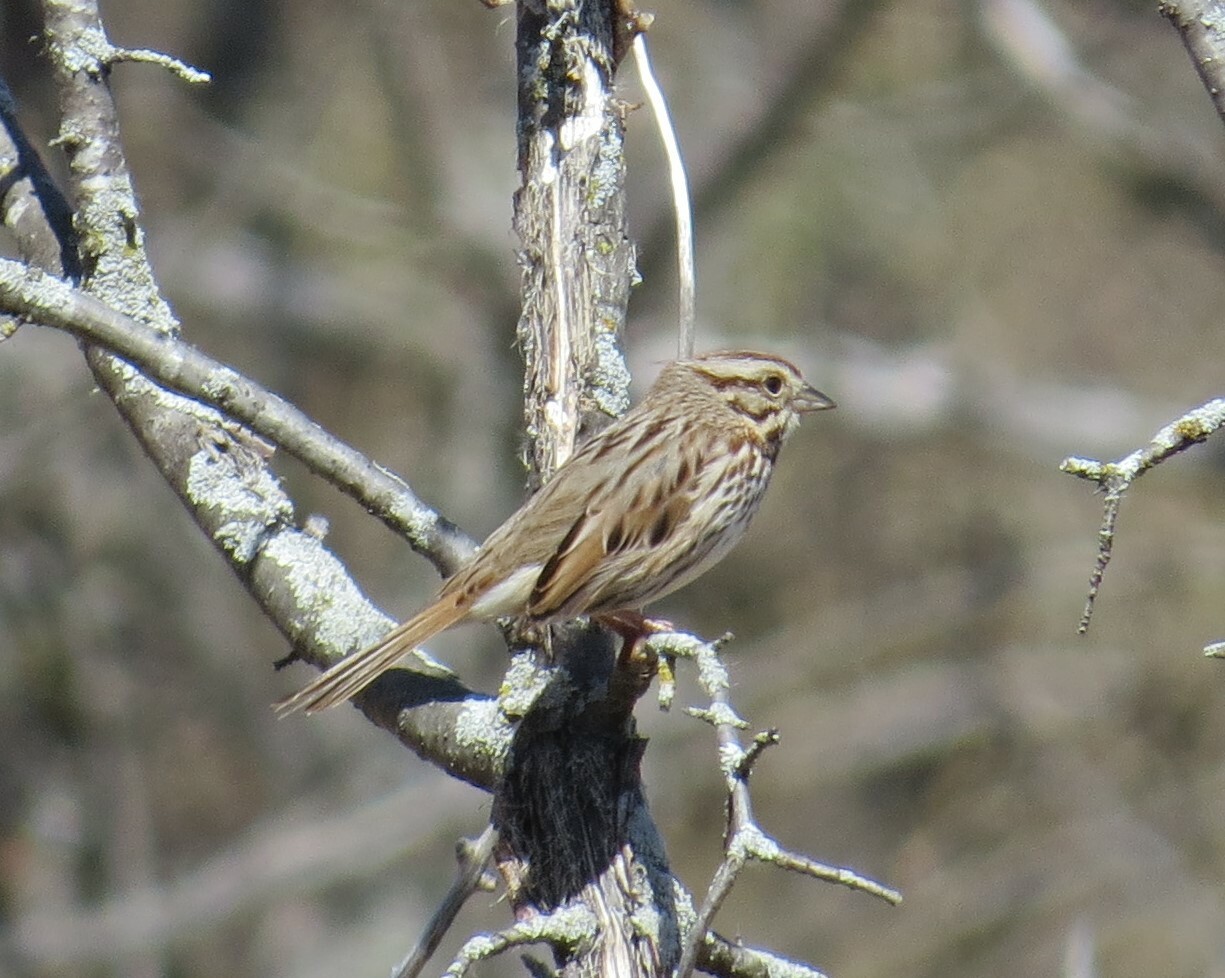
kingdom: Animalia
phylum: Chordata
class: Aves
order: Passeriformes
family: Passerellidae
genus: Melospiza
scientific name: Melospiza melodia
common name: Song sparrow
